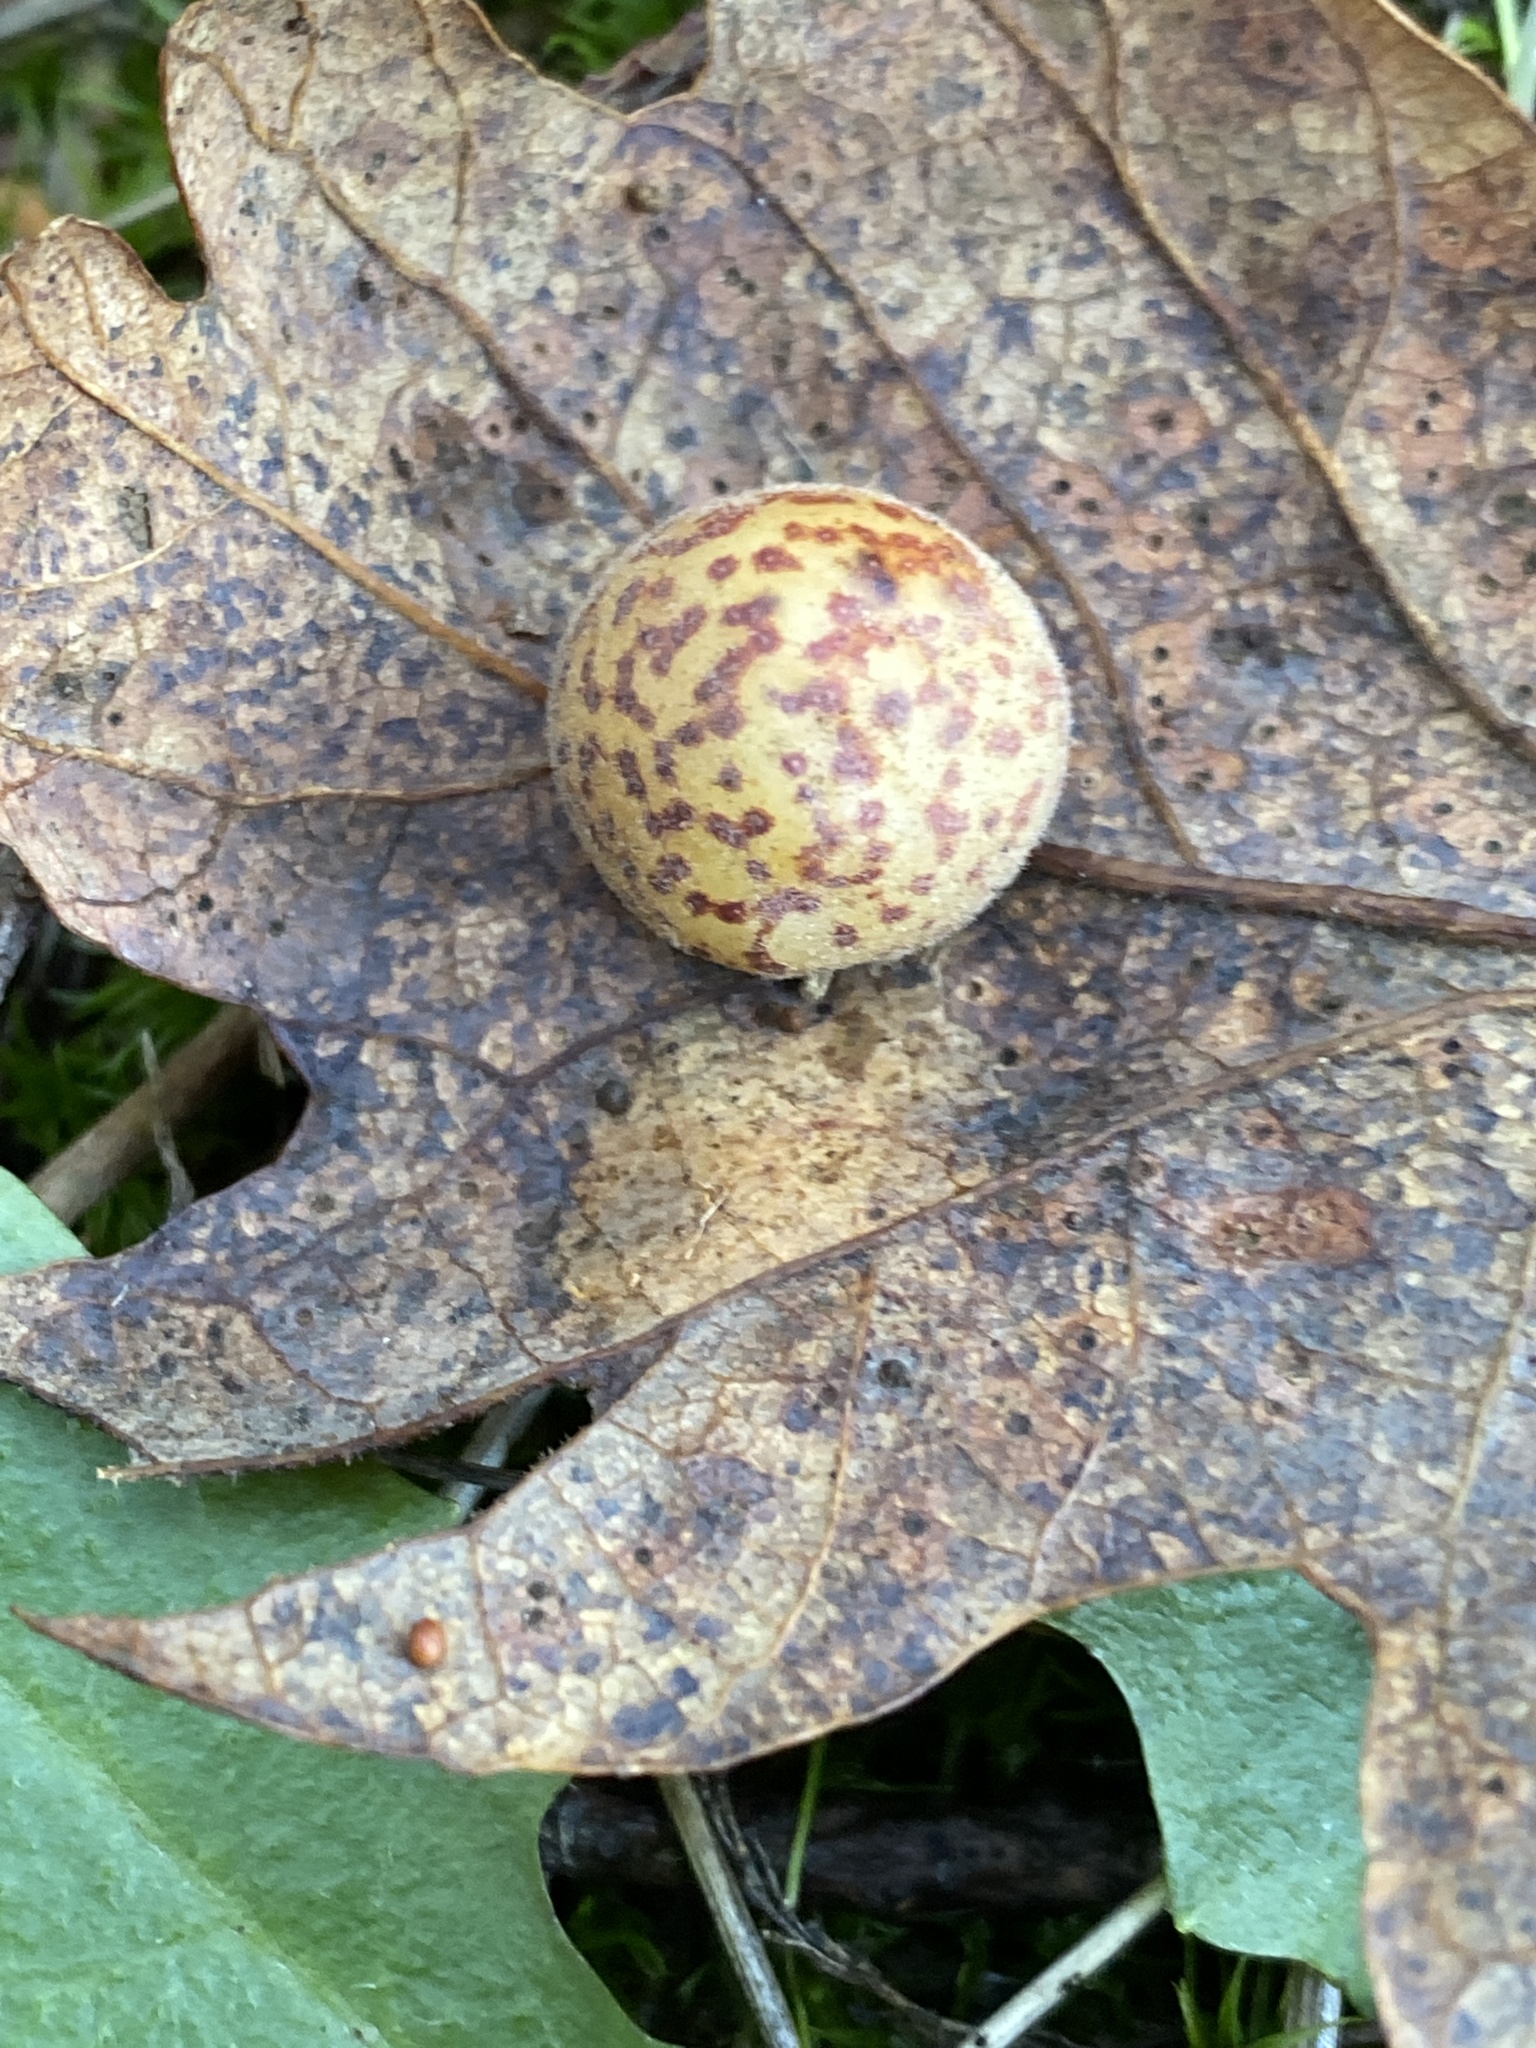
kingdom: Animalia
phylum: Arthropoda
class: Insecta
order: Hymenoptera
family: Cynipidae
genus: Cynips
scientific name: Cynips
